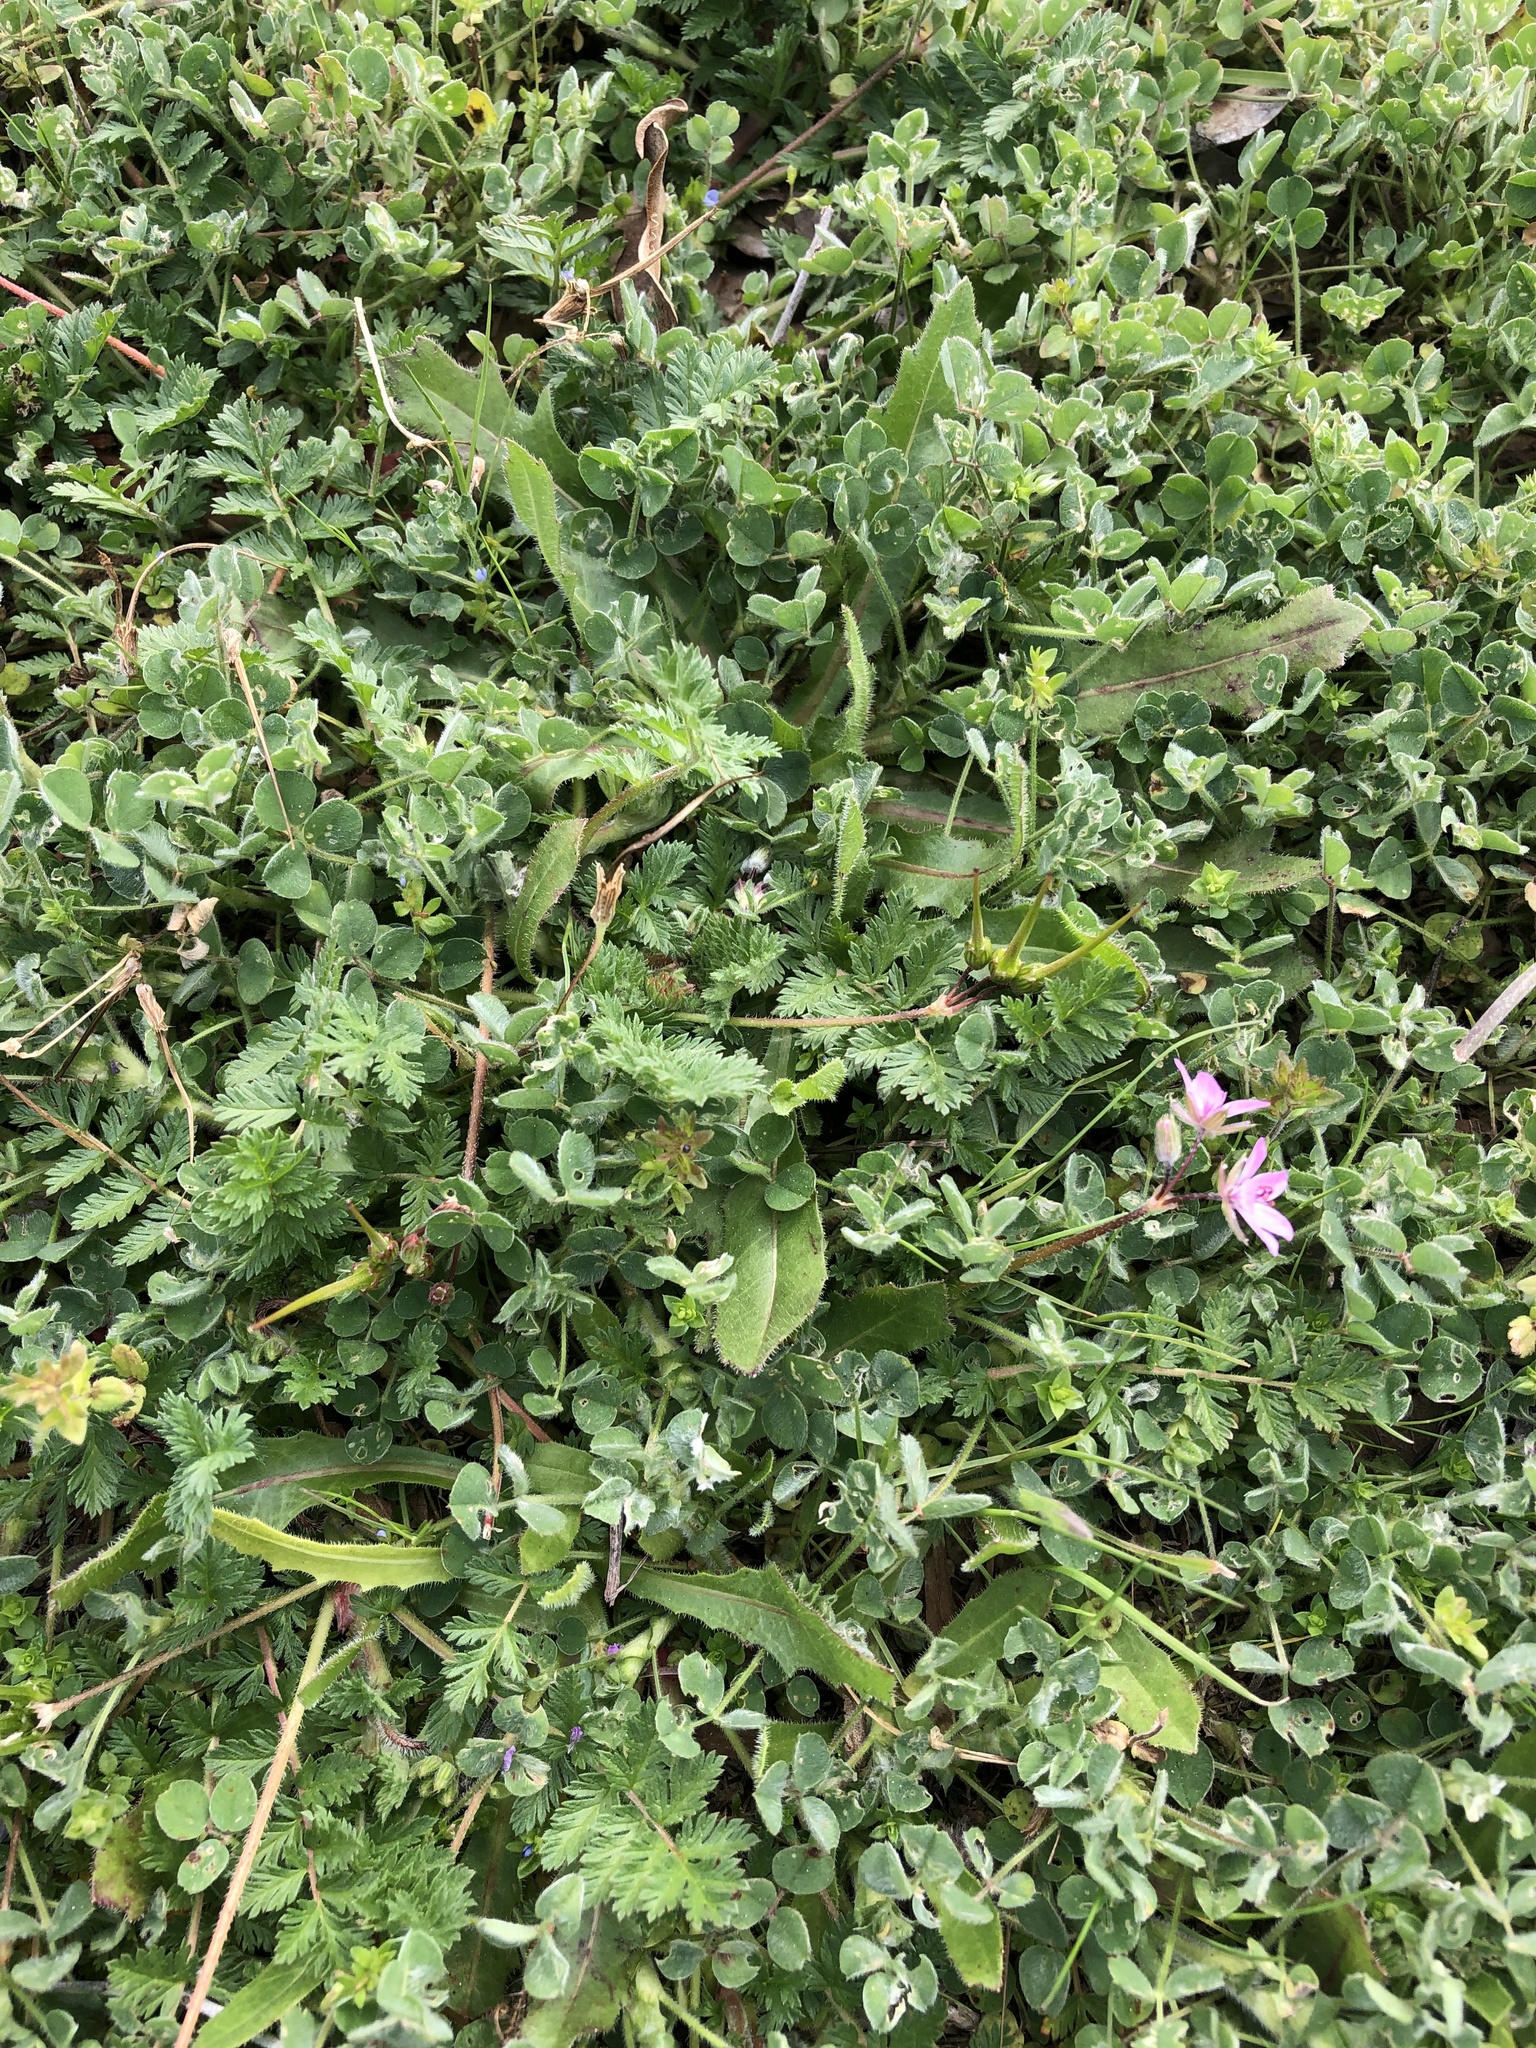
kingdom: Plantae
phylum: Tracheophyta
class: Magnoliopsida
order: Geraniales
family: Geraniaceae
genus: Erodium
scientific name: Erodium cicutarium
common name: Common stork's-bill
